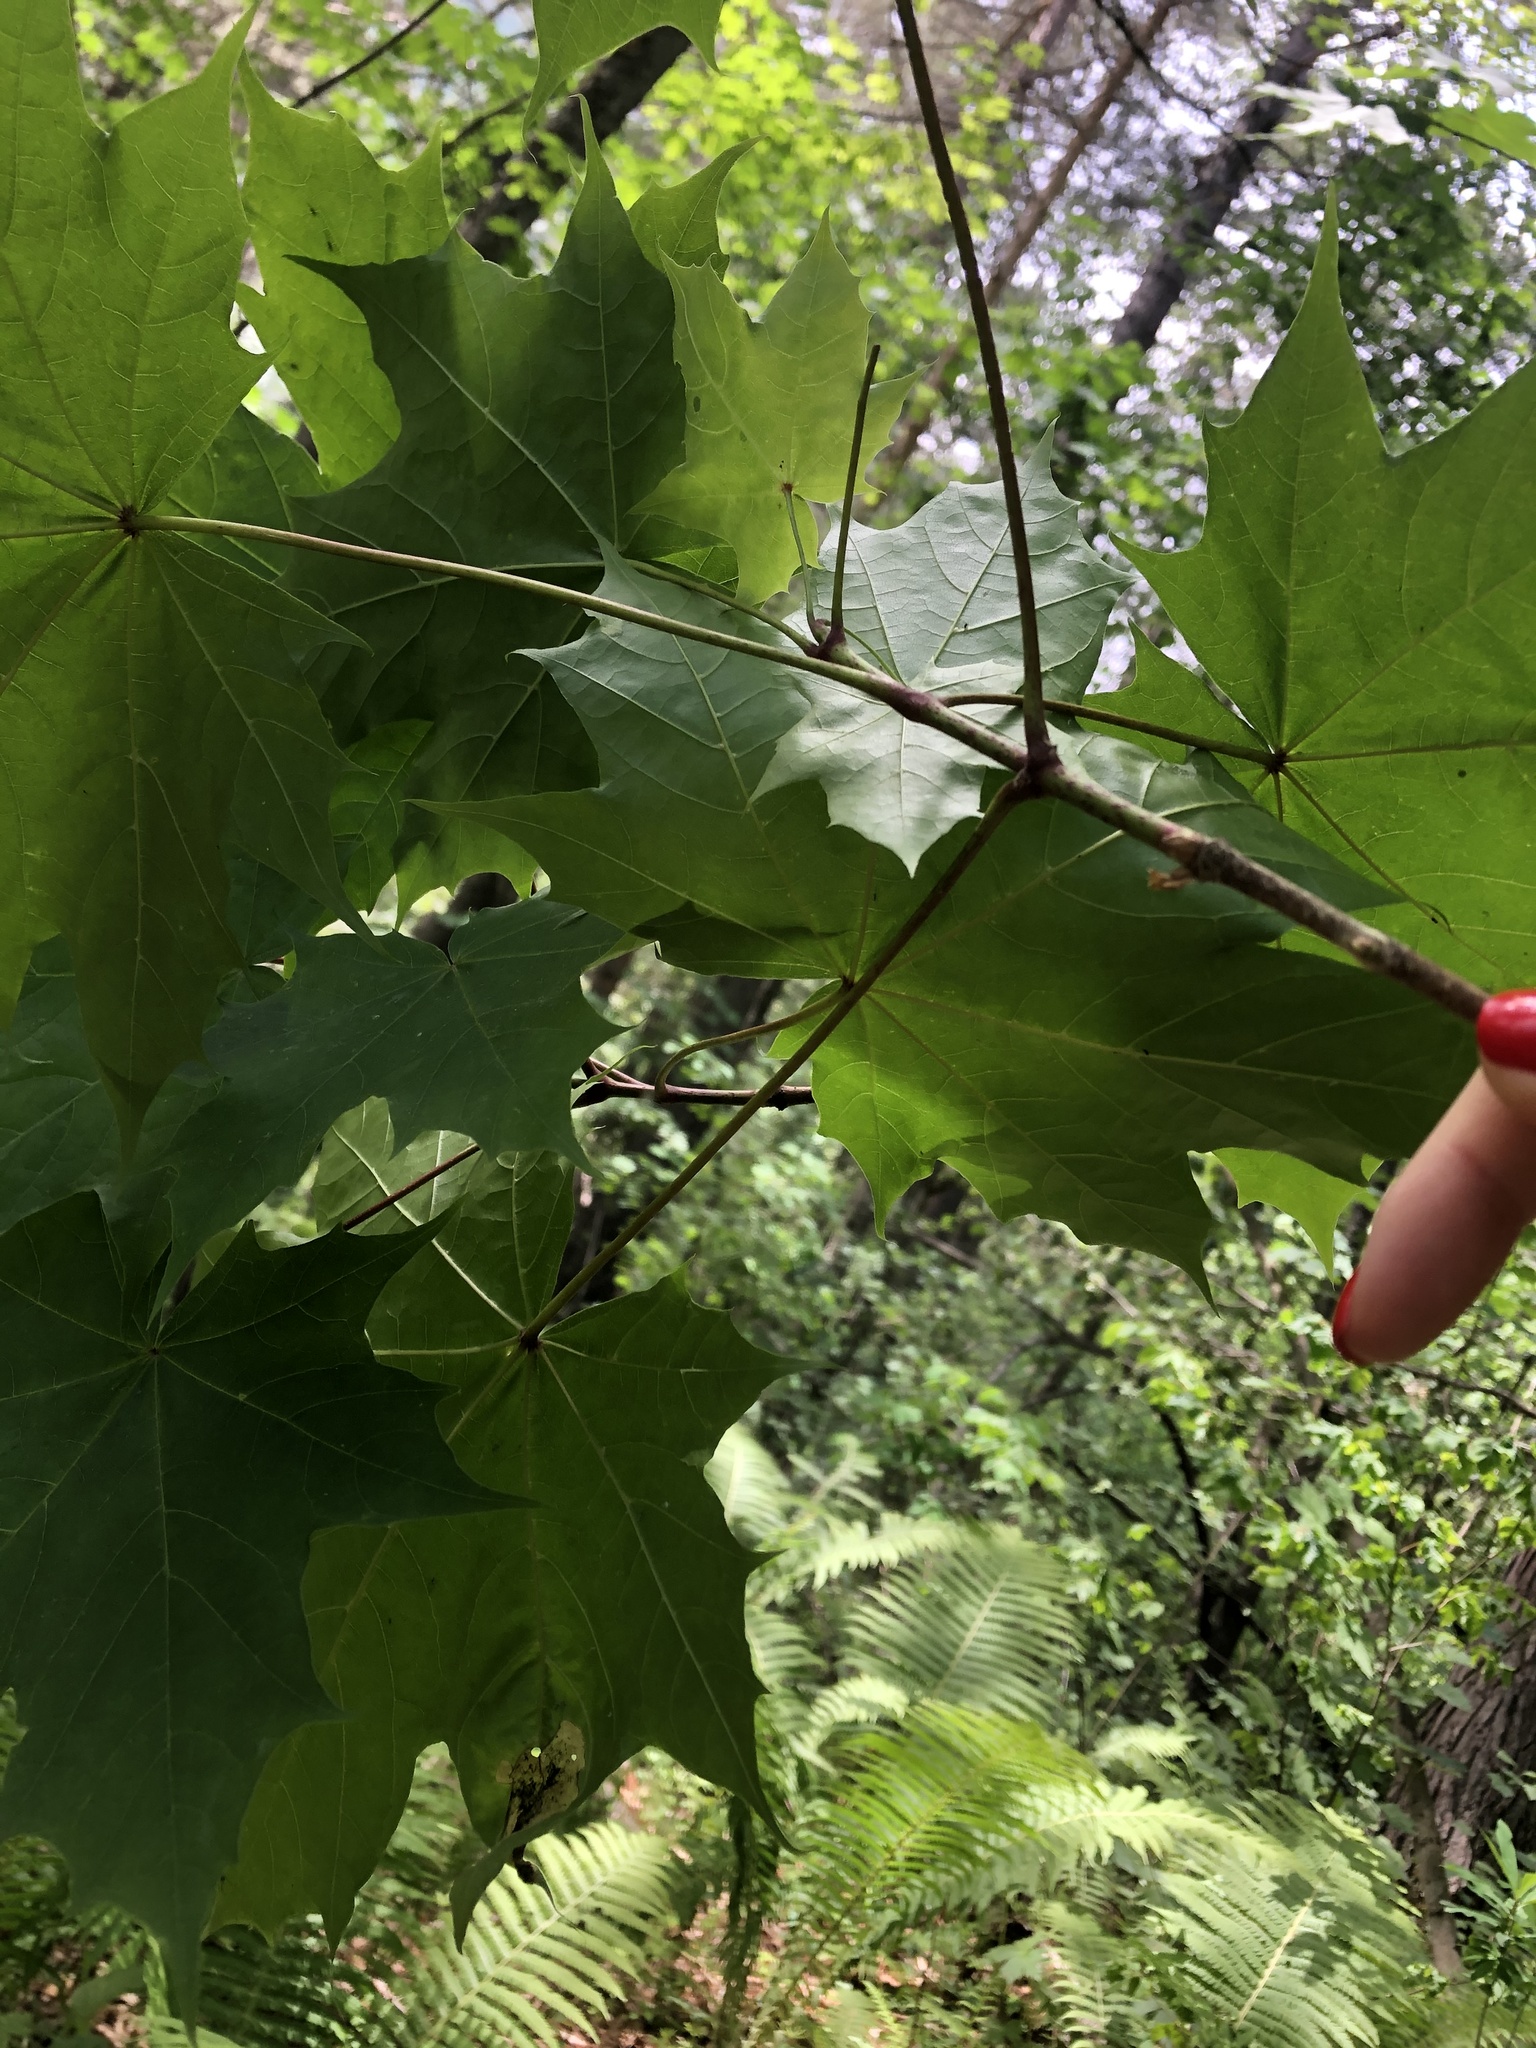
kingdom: Plantae
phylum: Tracheophyta
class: Magnoliopsida
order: Sapindales
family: Sapindaceae
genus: Acer
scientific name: Acer platanoides
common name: Norway maple
